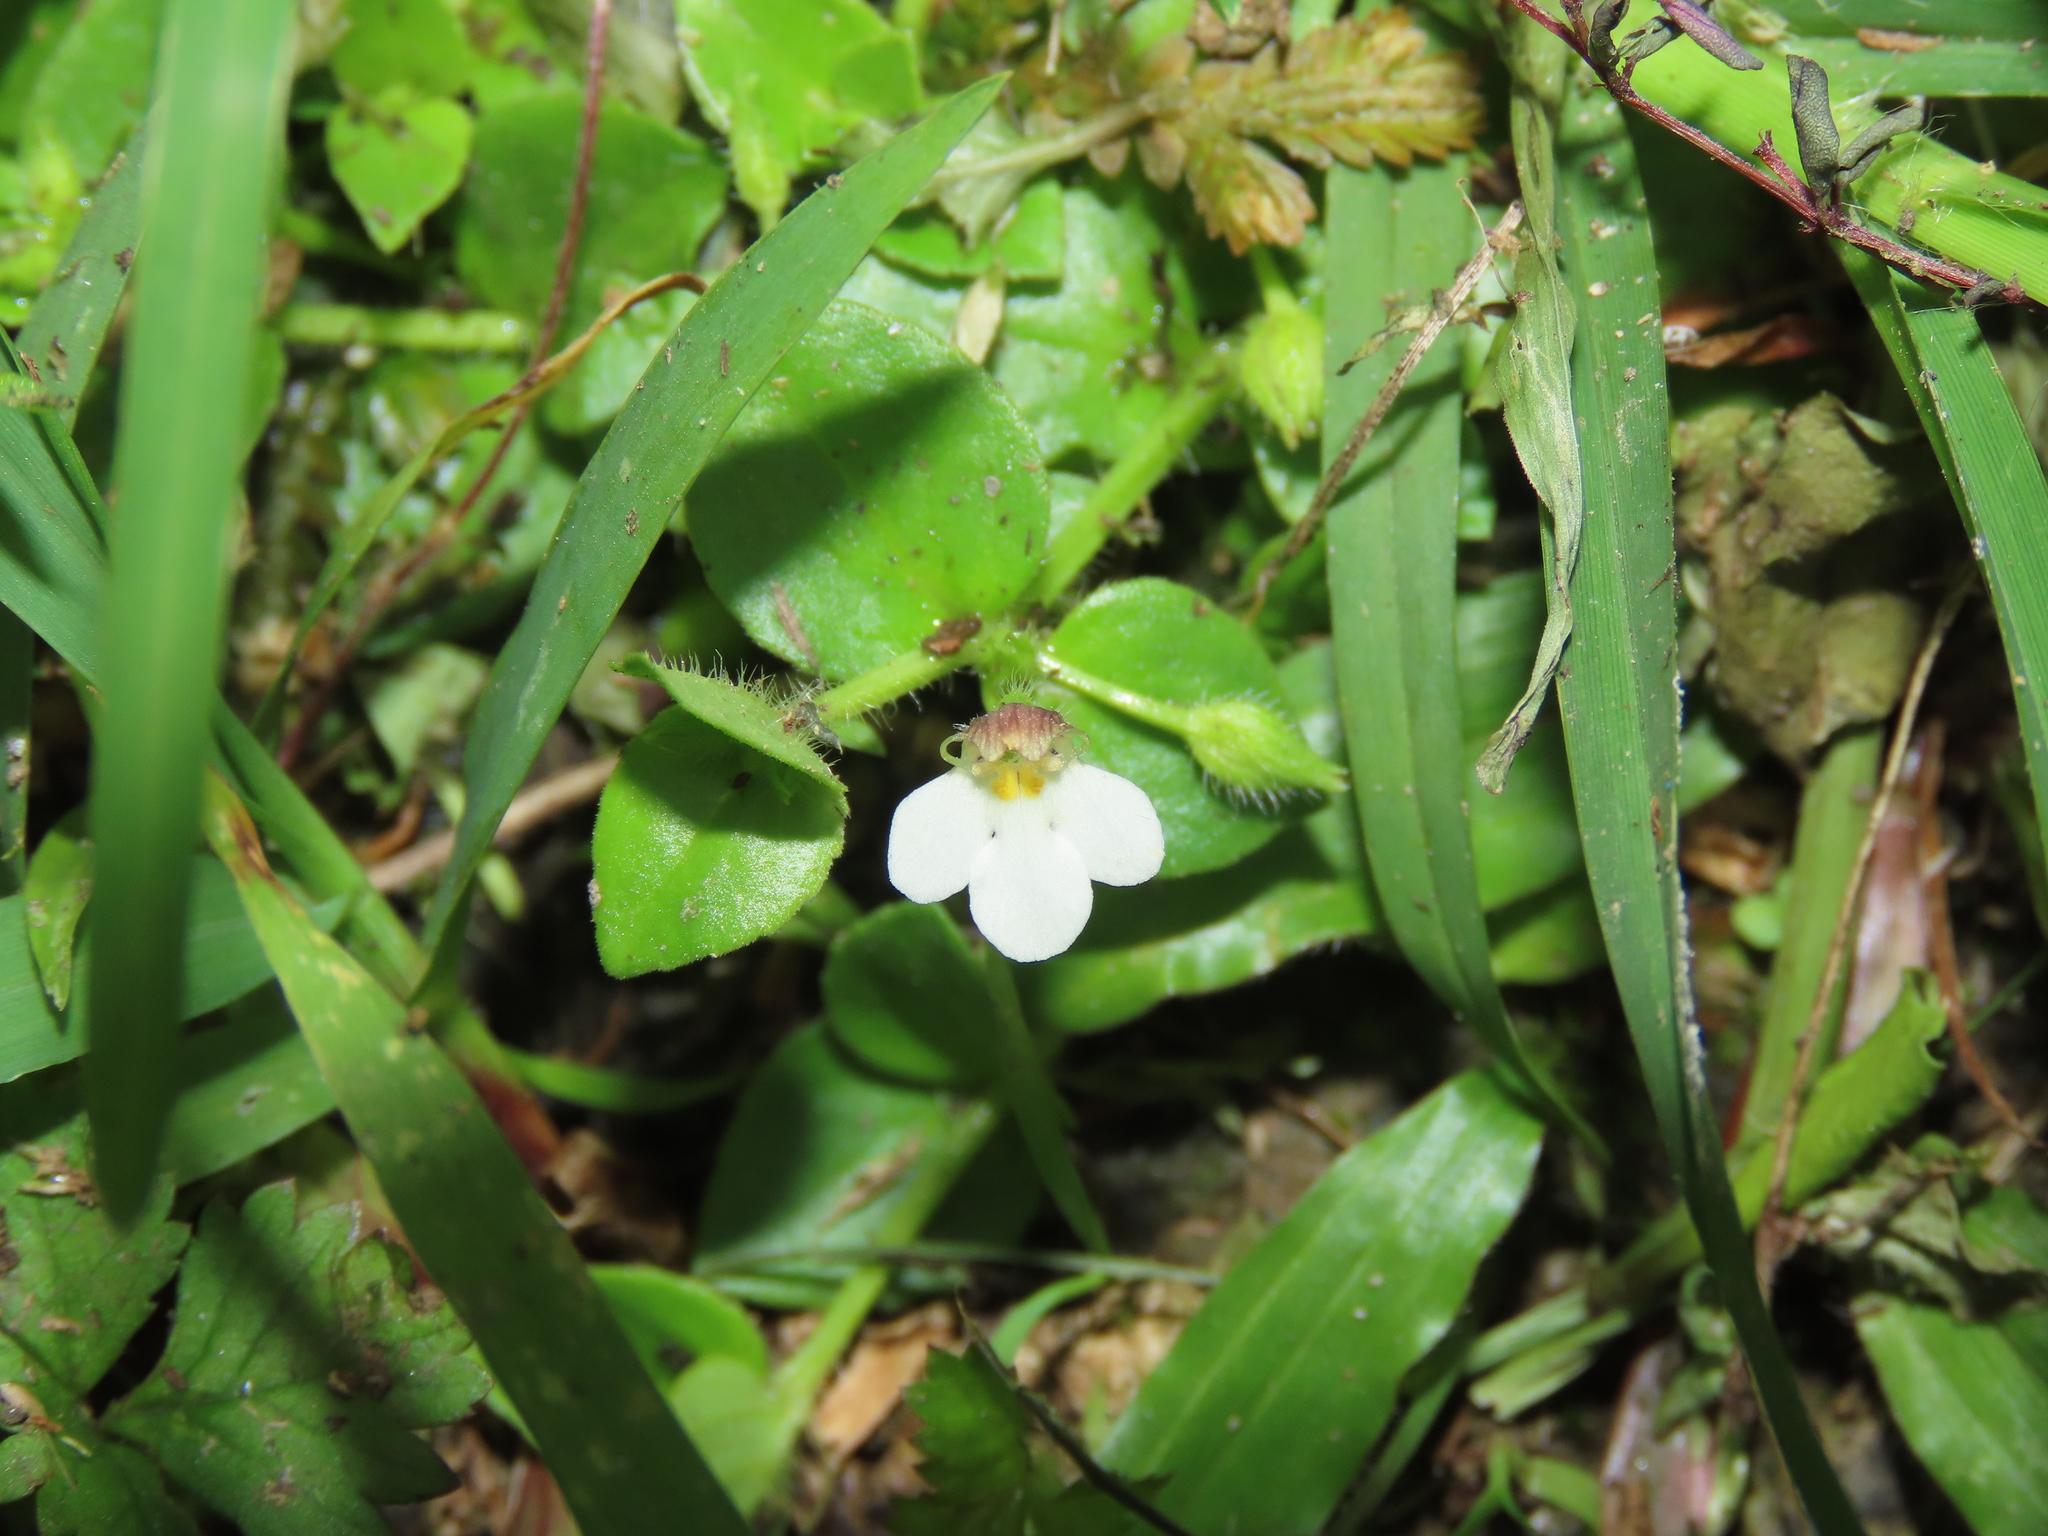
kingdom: Plantae
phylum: Tracheophyta
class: Magnoliopsida
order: Lamiales
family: Linderniaceae
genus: Yamazakia
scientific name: Yamazakia pusilla
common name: Tiny slitwort
